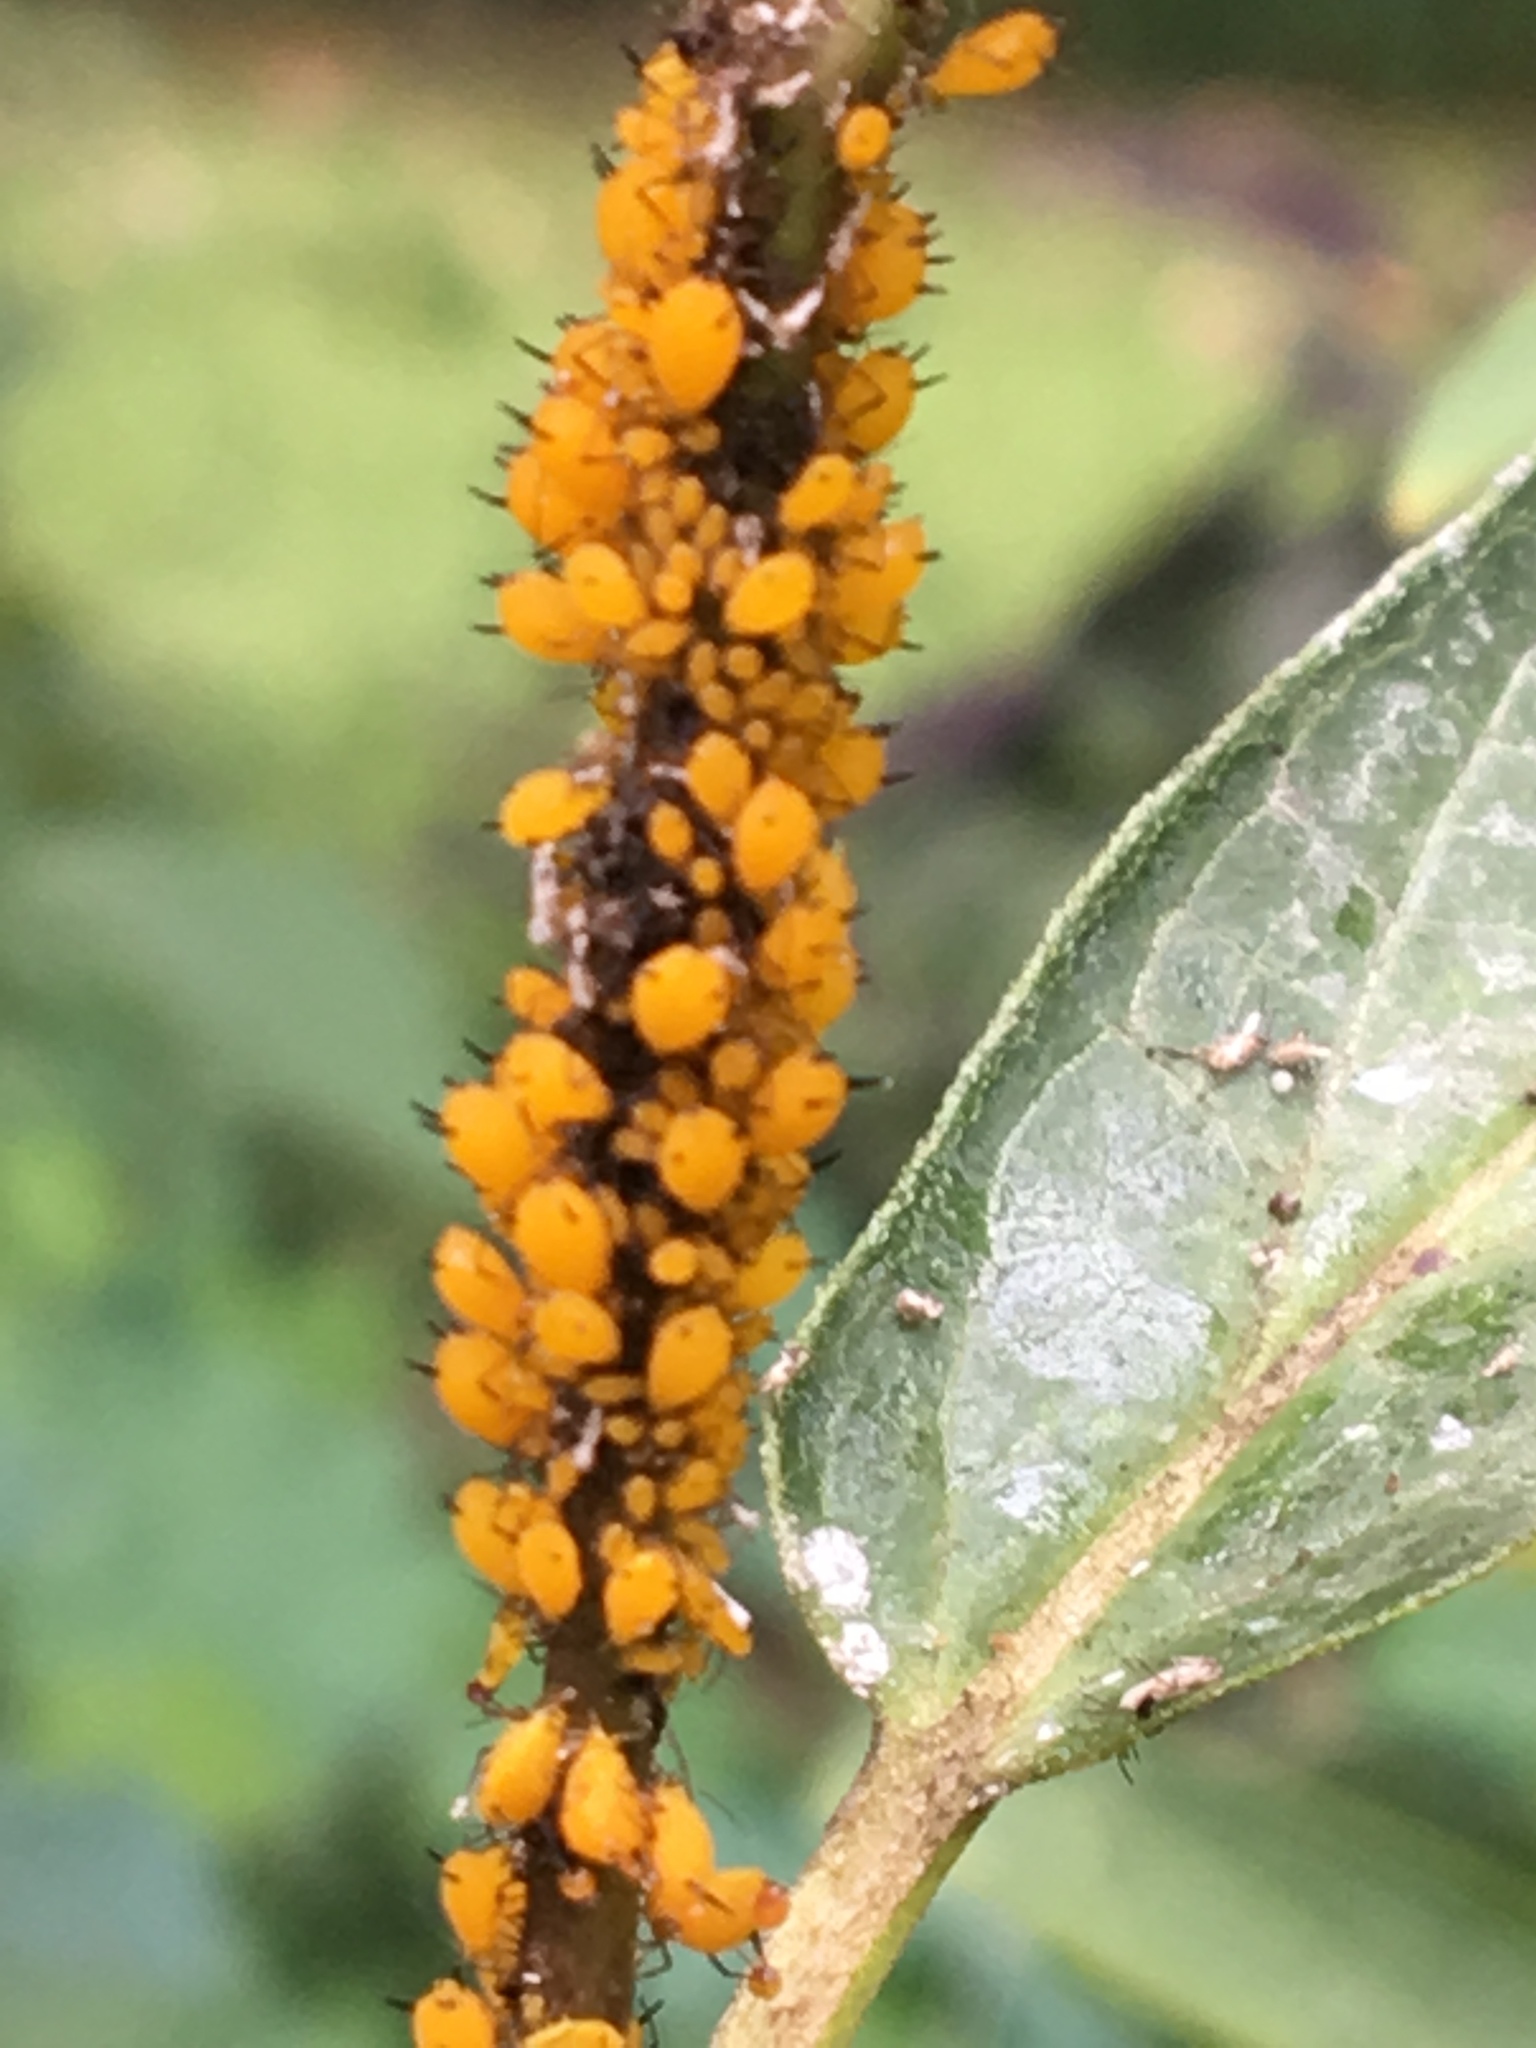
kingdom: Animalia
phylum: Arthropoda
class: Insecta
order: Hemiptera
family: Aphididae
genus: Aphis
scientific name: Aphis nerii
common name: Oleander aphid
